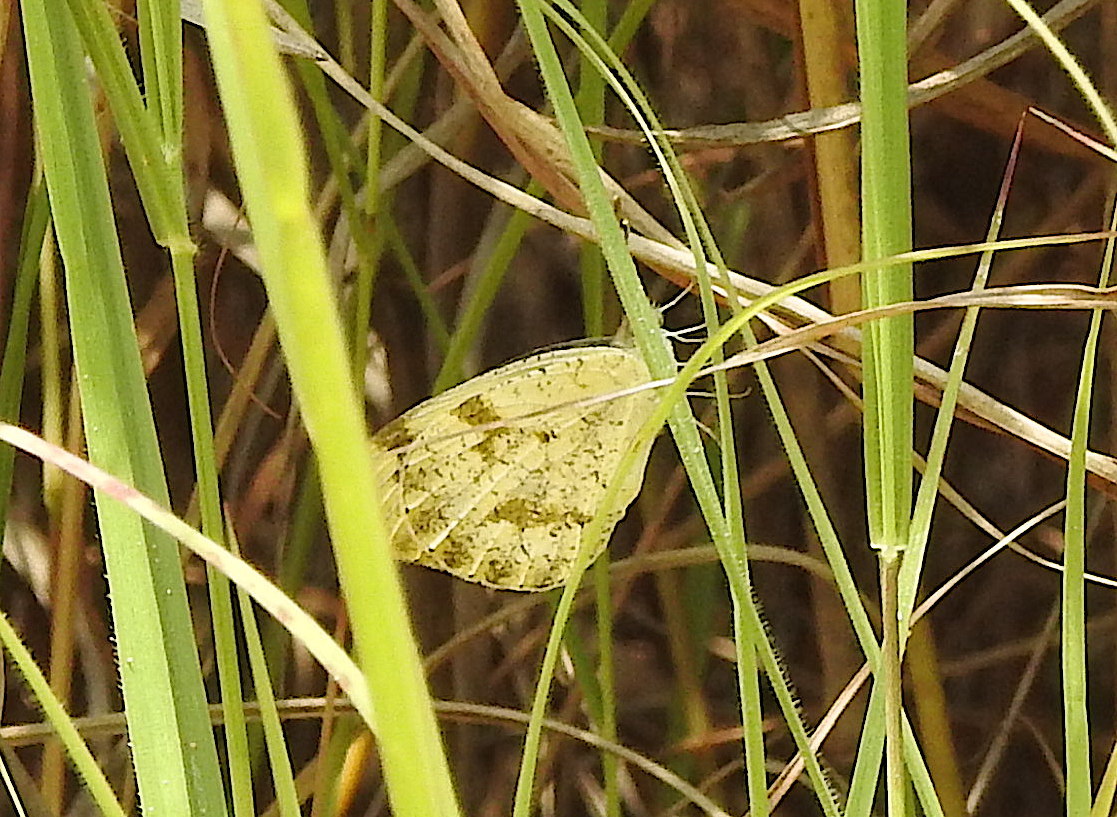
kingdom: Animalia
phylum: Arthropoda
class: Insecta
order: Lepidoptera
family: Pieridae
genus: Colotis
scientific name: Colotis aurora
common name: Plain orange-tip
